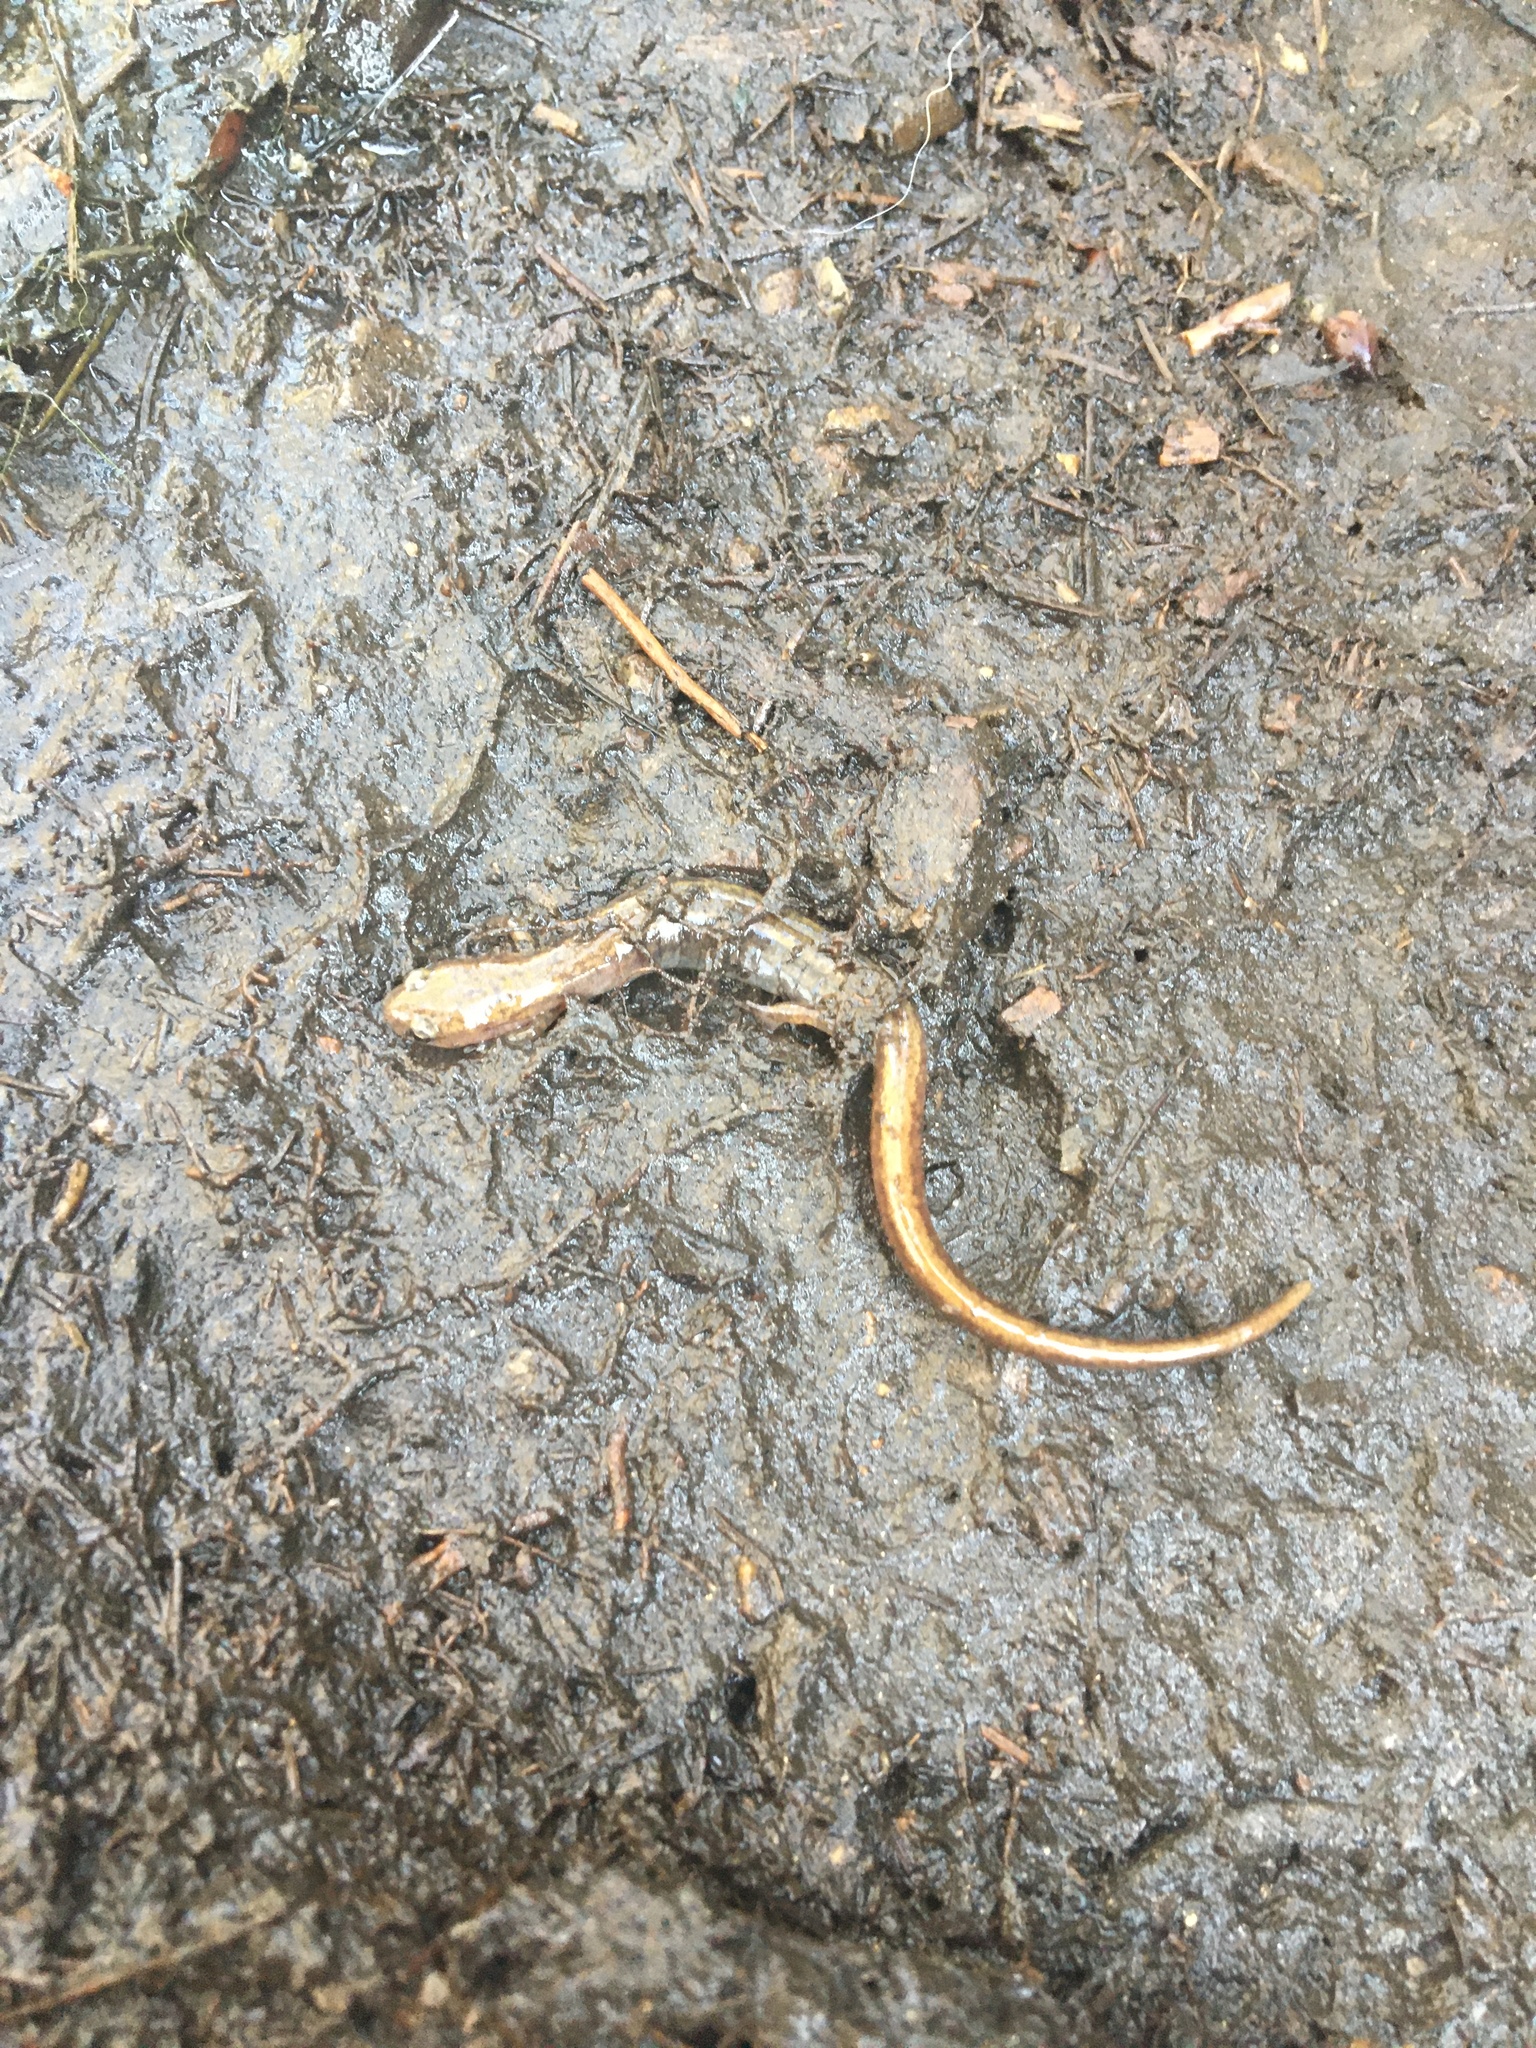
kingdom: Animalia
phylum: Chordata
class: Amphibia
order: Caudata
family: Plethodontidae
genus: Eurycea
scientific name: Eurycea bislineata
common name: Northern two-lined salamander
